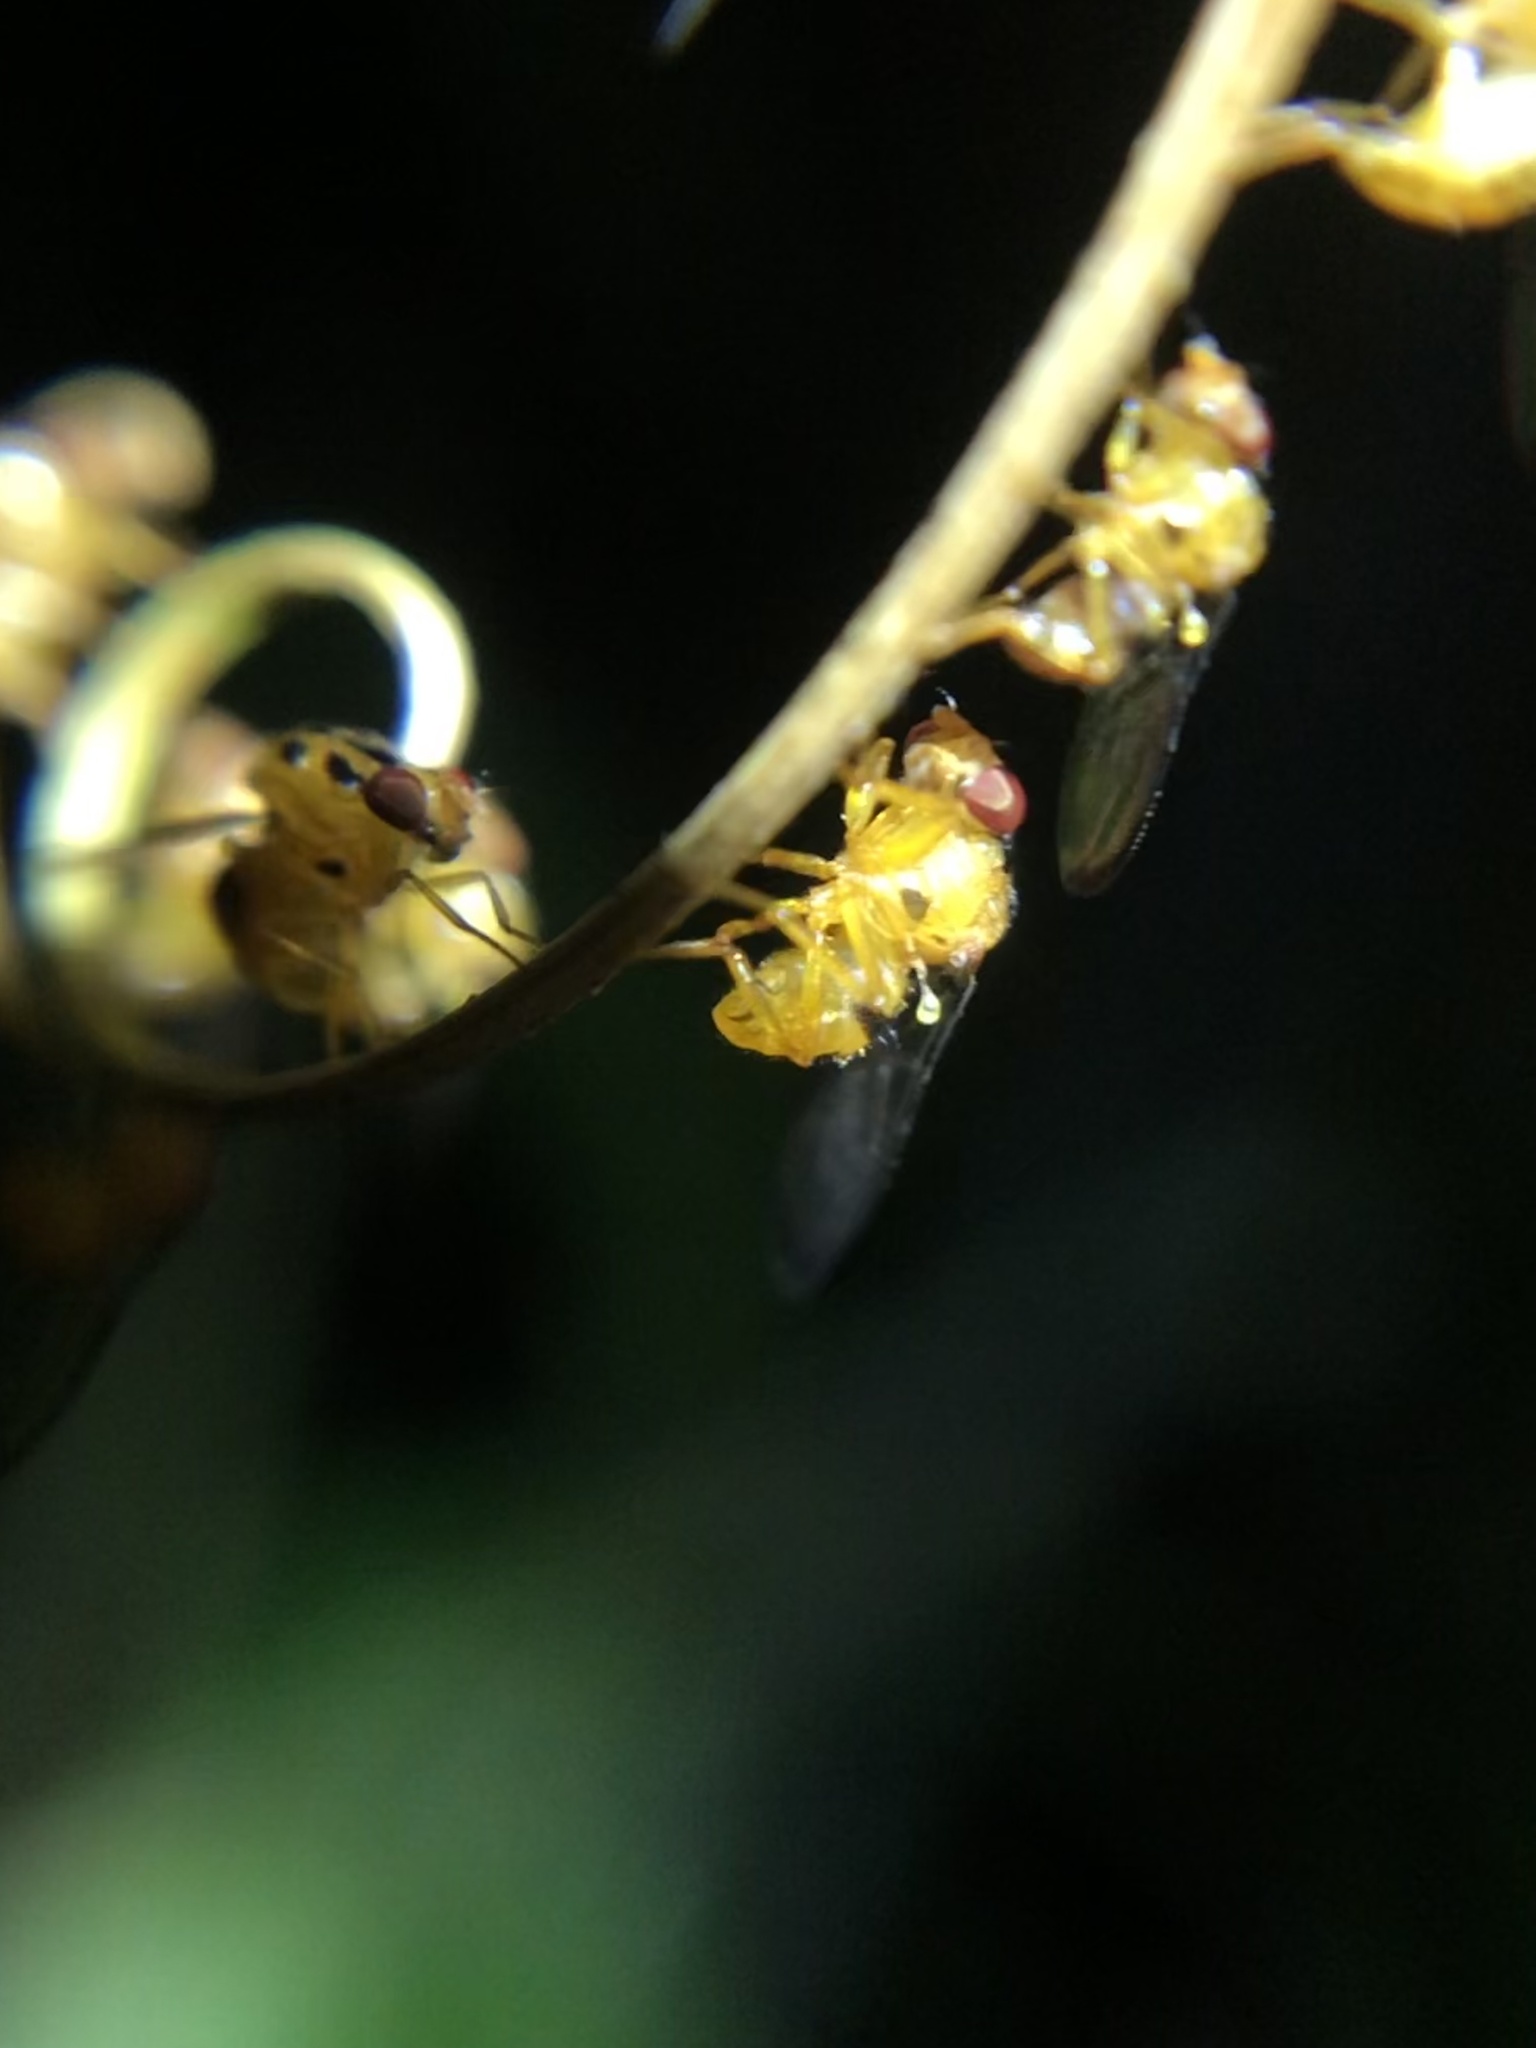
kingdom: Animalia
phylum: Arthropoda
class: Insecta
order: Diptera
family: Somatiidae
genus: Somatia
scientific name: Somatia aestiva
